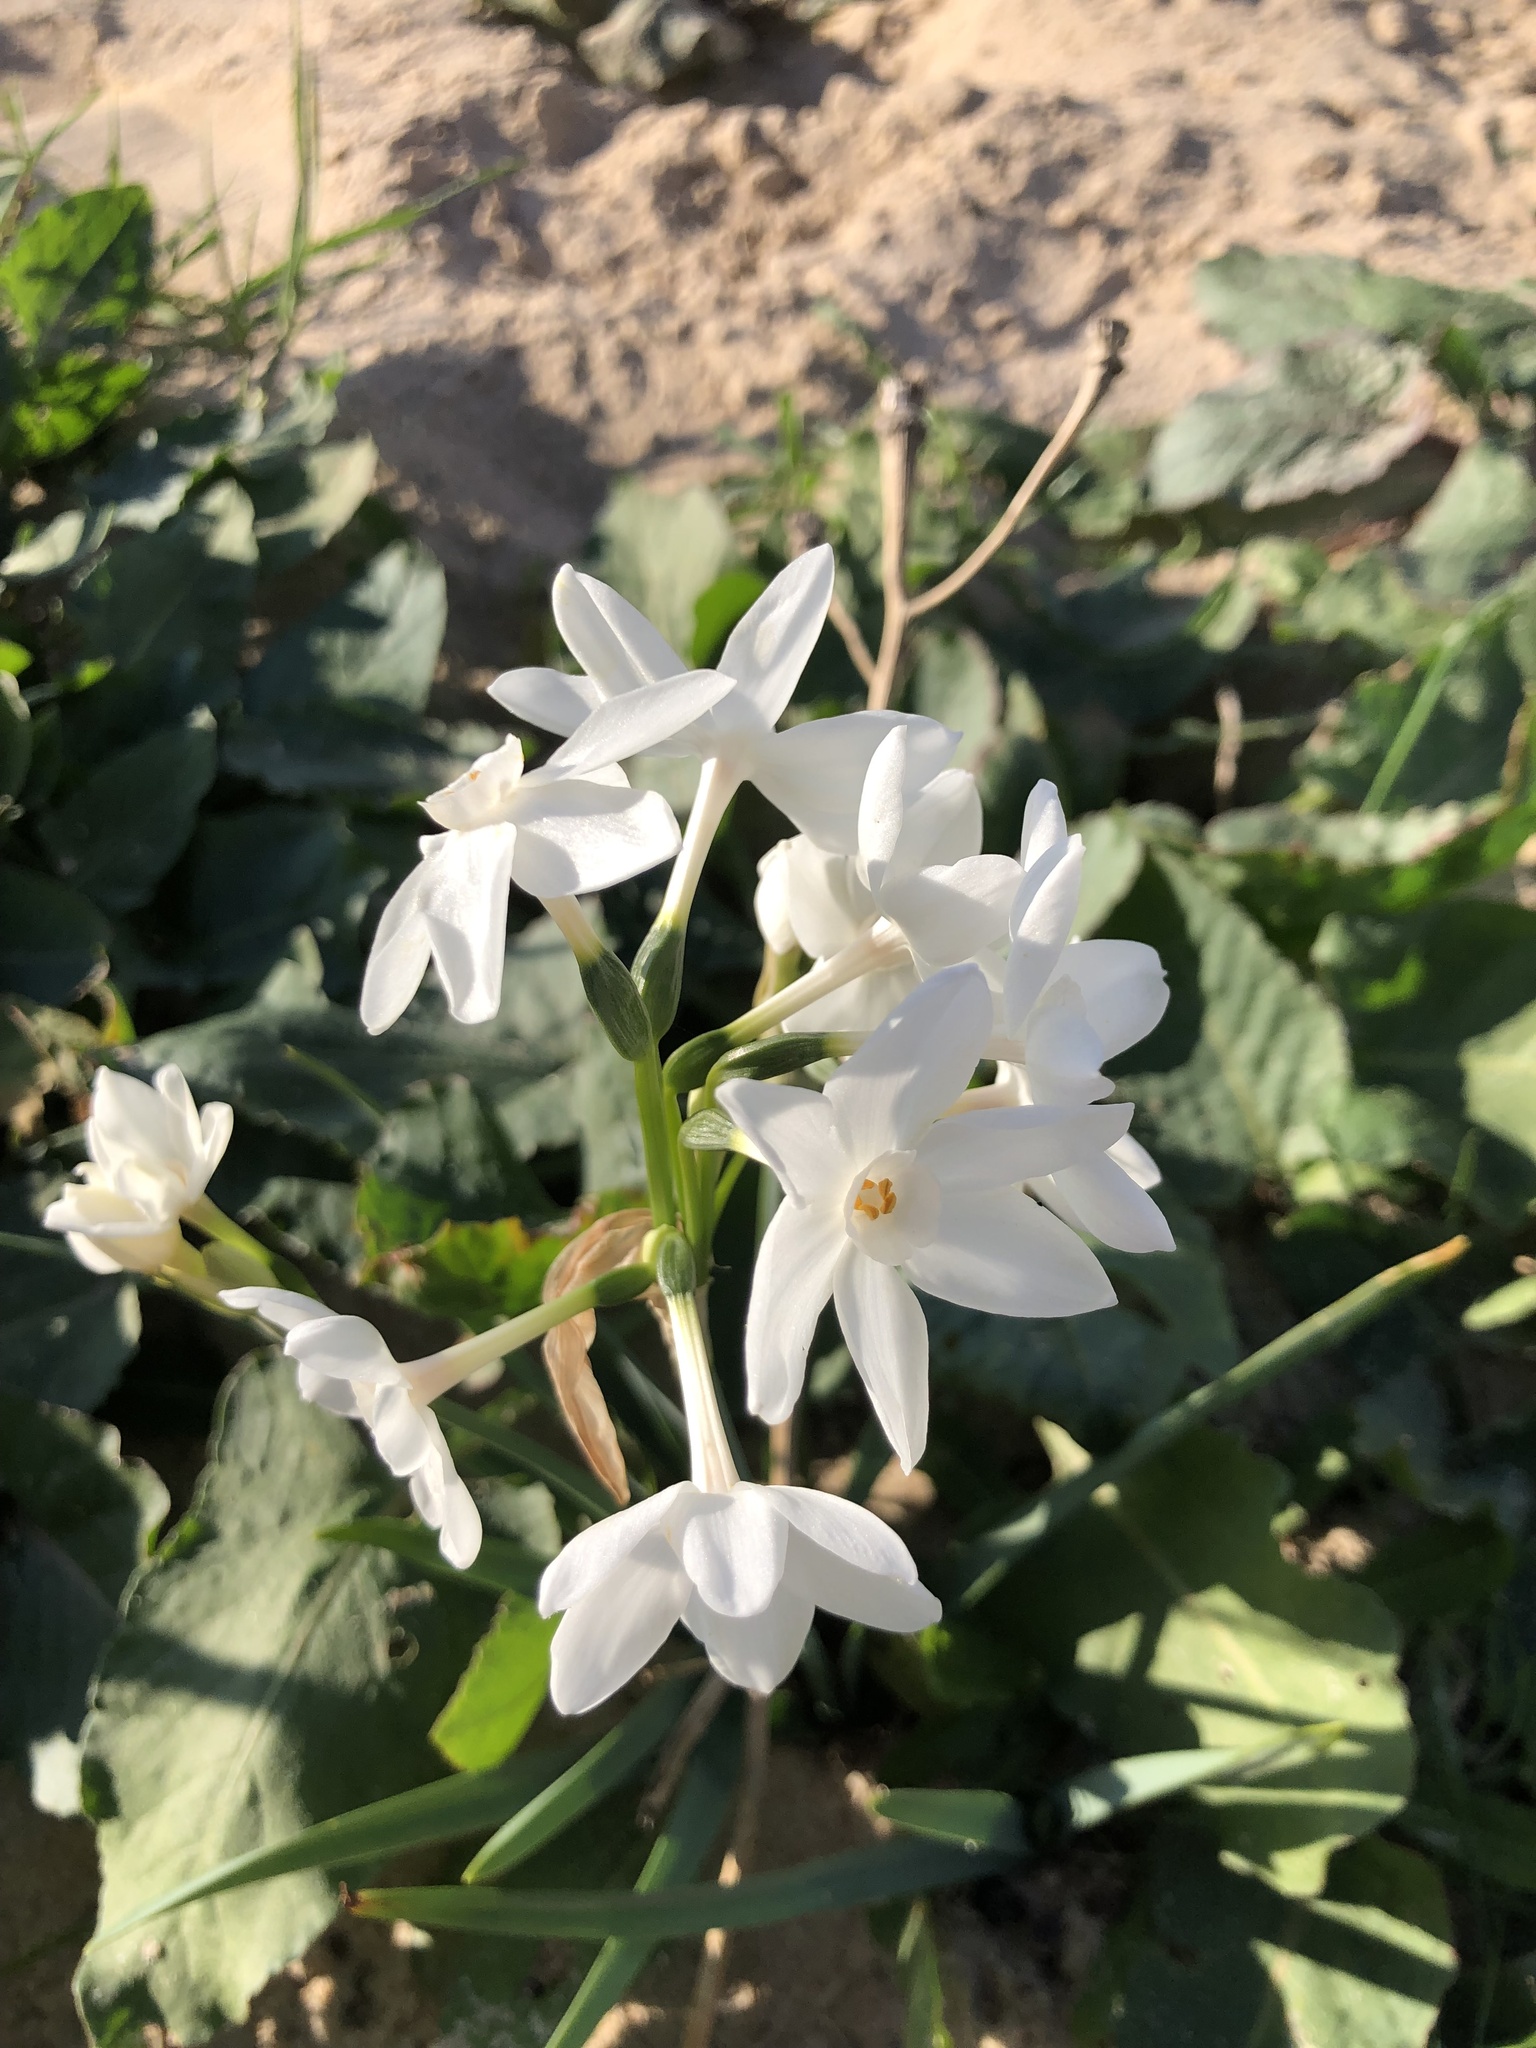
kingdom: Plantae
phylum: Tracheophyta
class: Liliopsida
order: Asparagales
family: Amaryllidaceae
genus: Narcissus
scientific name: Narcissus papyraceus
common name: Paper-white daffodil
